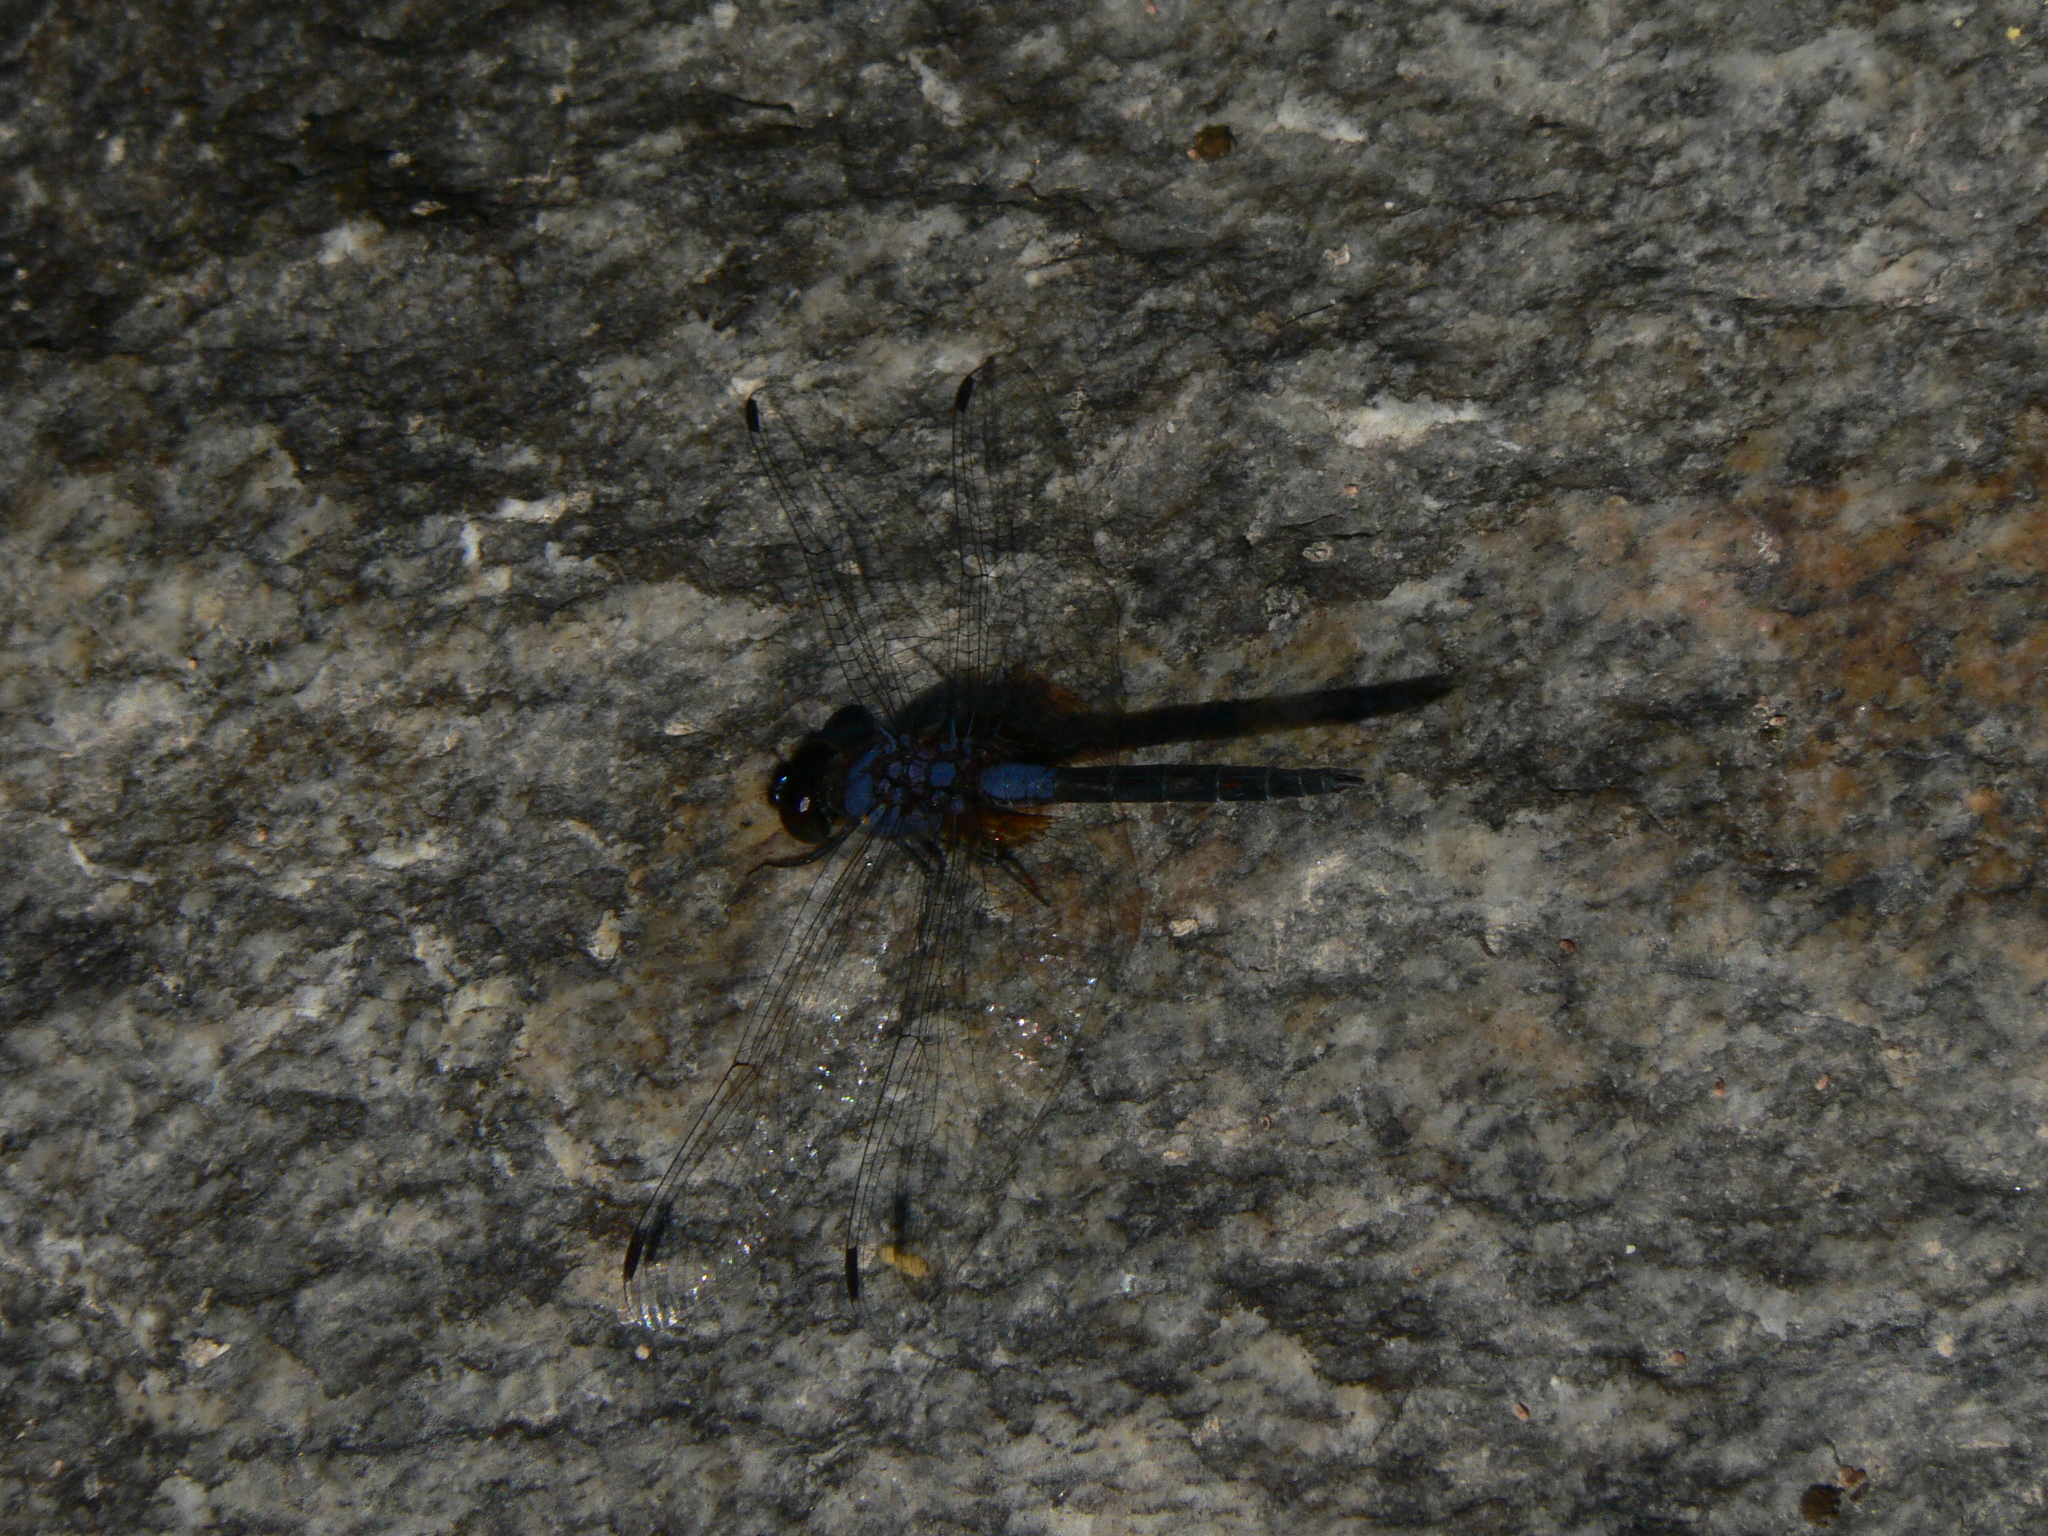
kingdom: Animalia
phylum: Arthropoda
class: Insecta
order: Odonata
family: Libellulidae
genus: Trithemis
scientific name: Trithemis festiva
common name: Indigo dropwing
